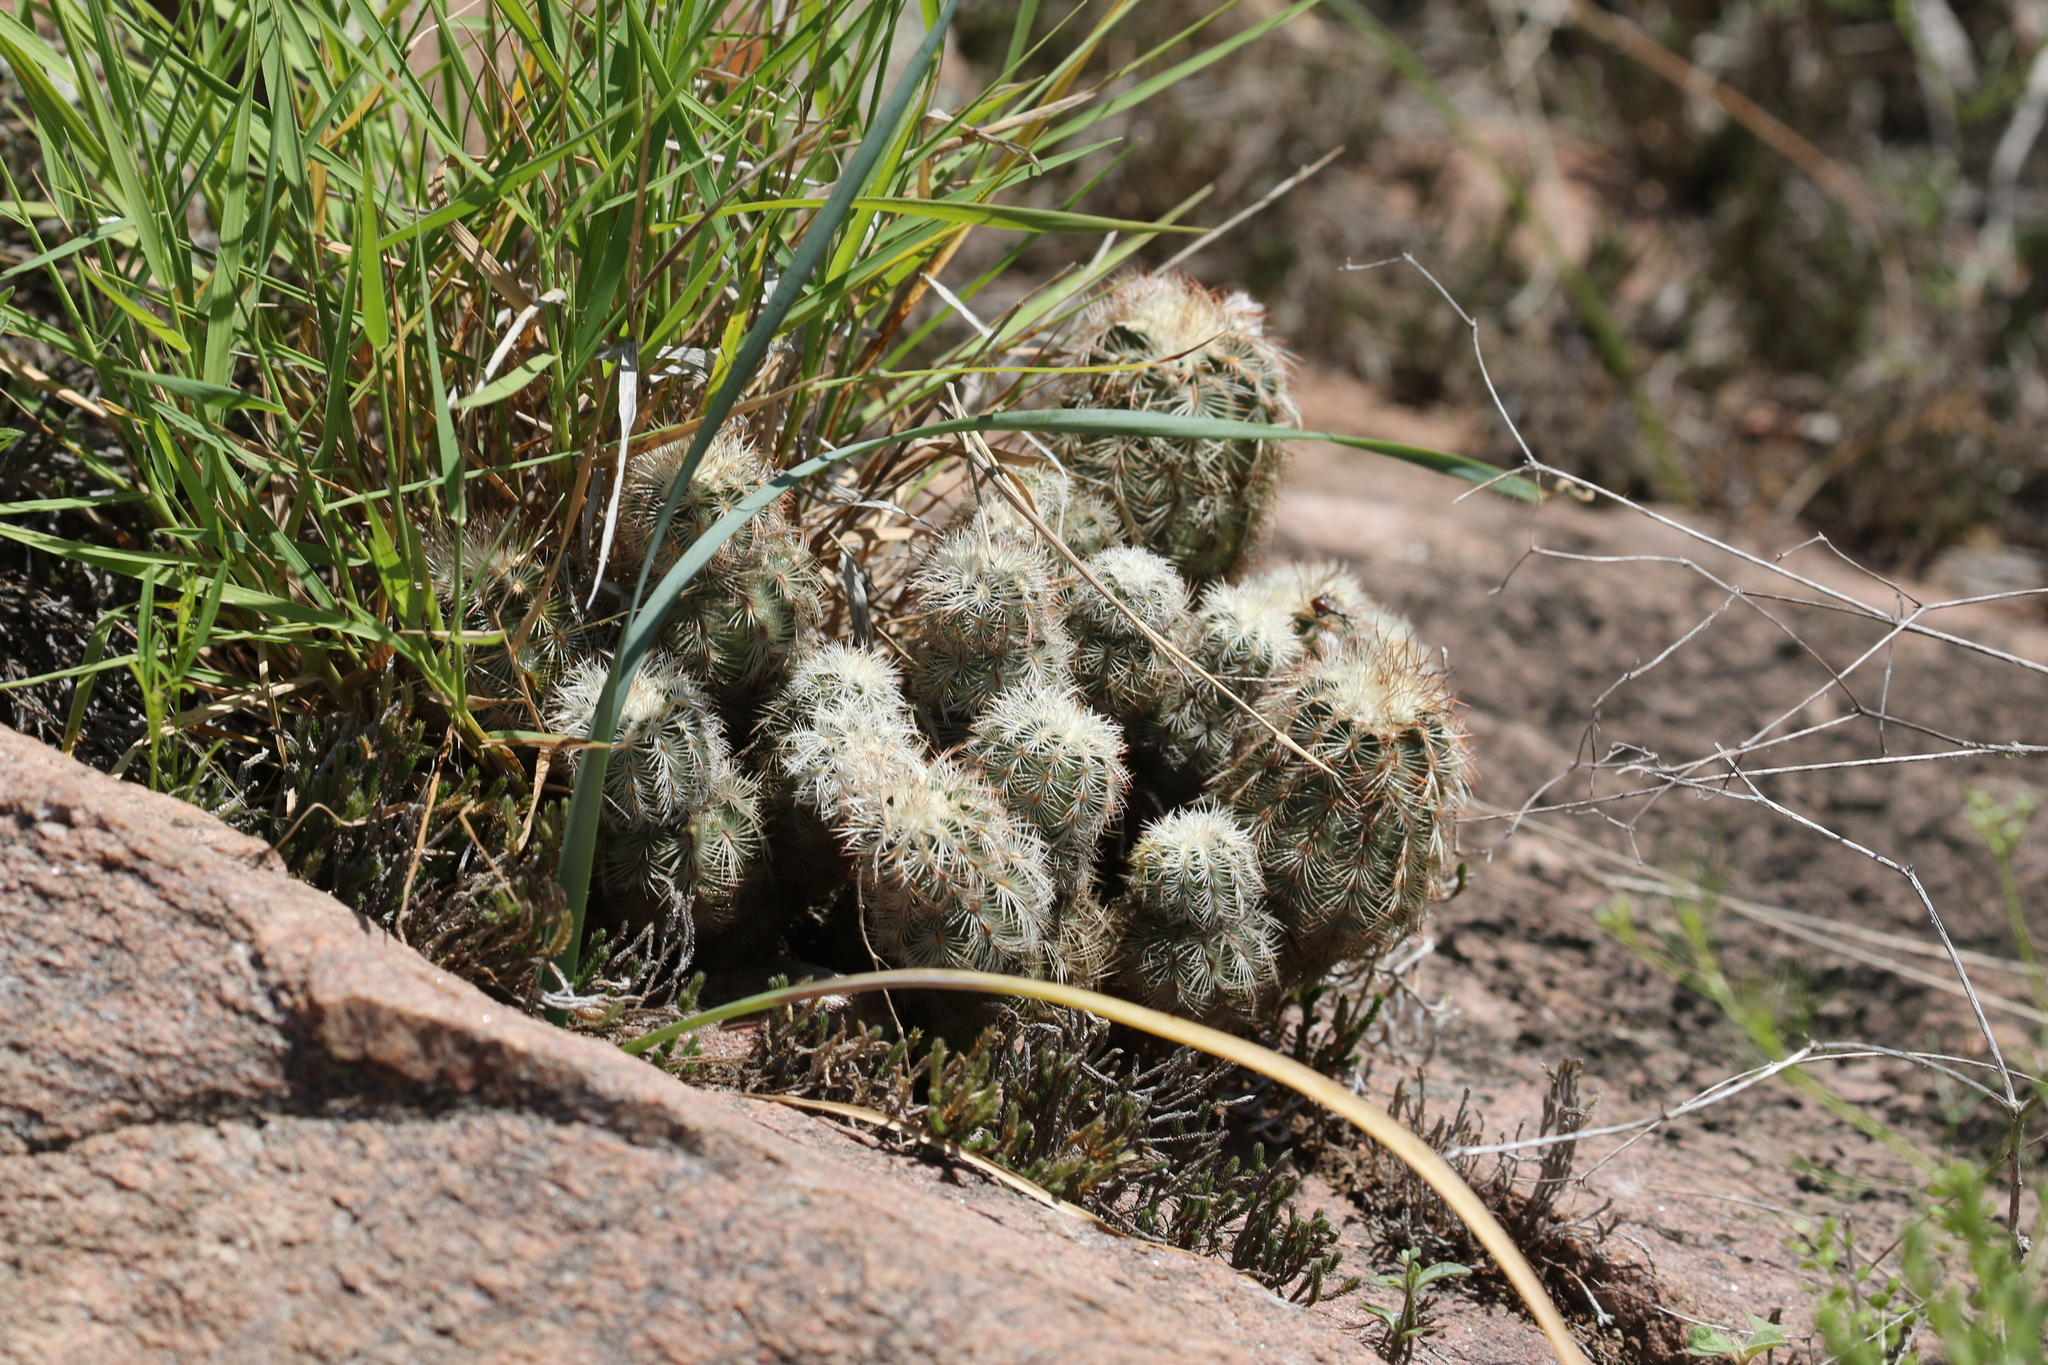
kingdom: Plantae
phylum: Tracheophyta
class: Magnoliopsida
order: Caryophyllales
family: Cactaceae
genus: Echinocereus
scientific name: Echinocereus reichenbachii
